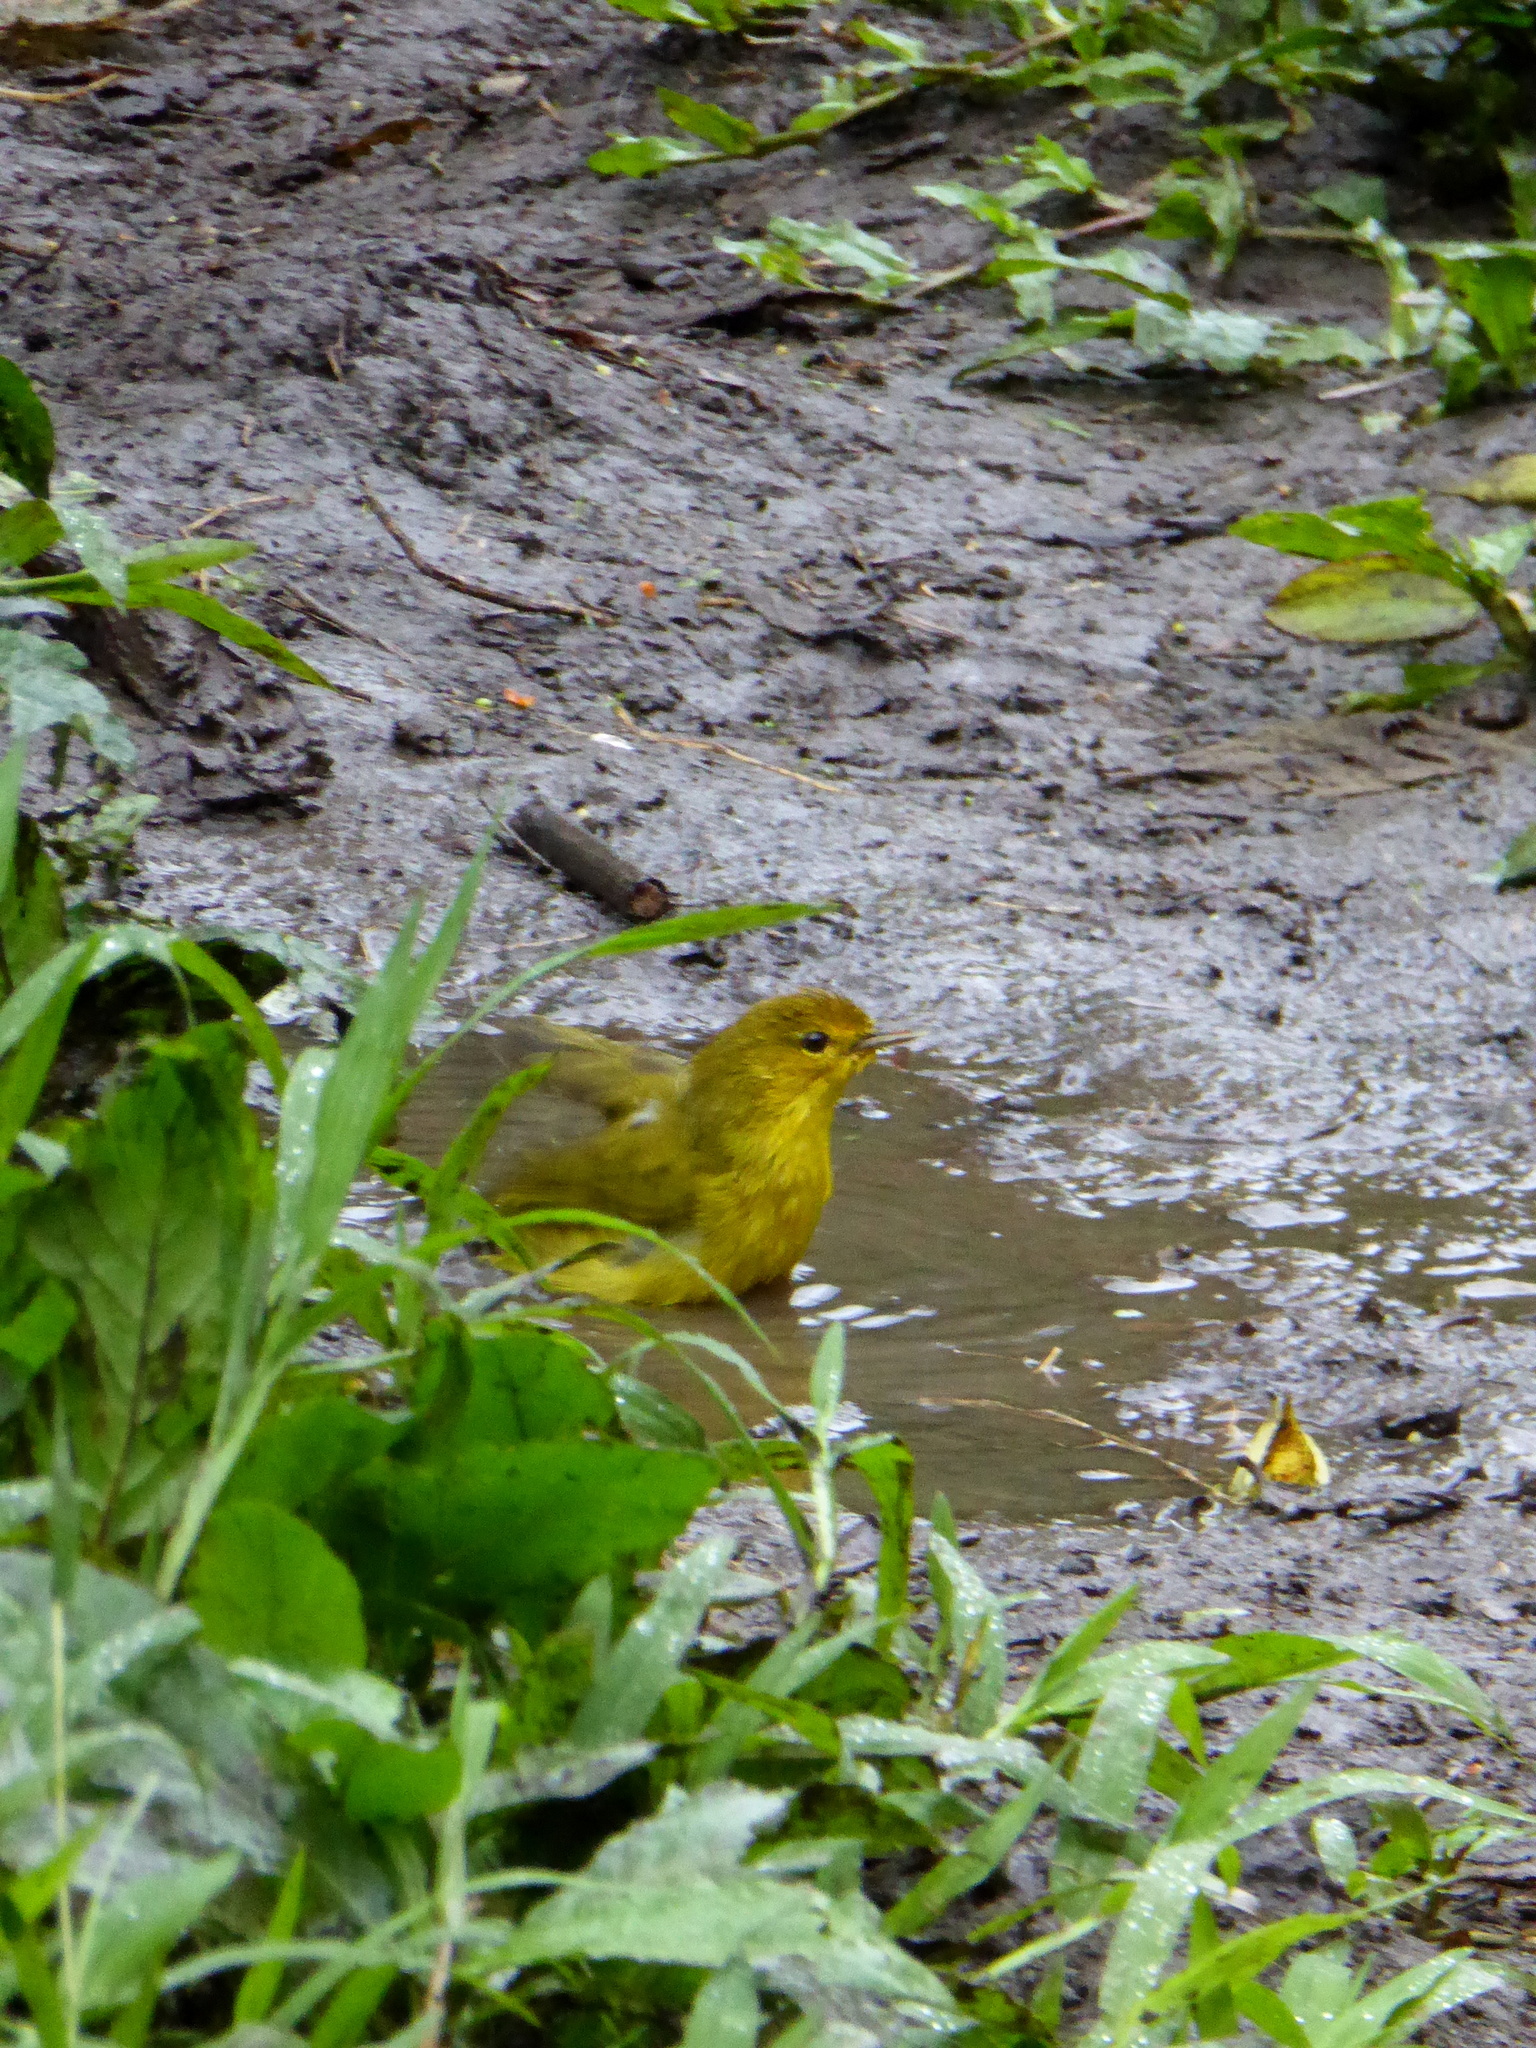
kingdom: Animalia
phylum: Chordata
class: Aves
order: Passeriformes
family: Parulidae
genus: Setophaga
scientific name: Setophaga petechia
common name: Yellow warbler
